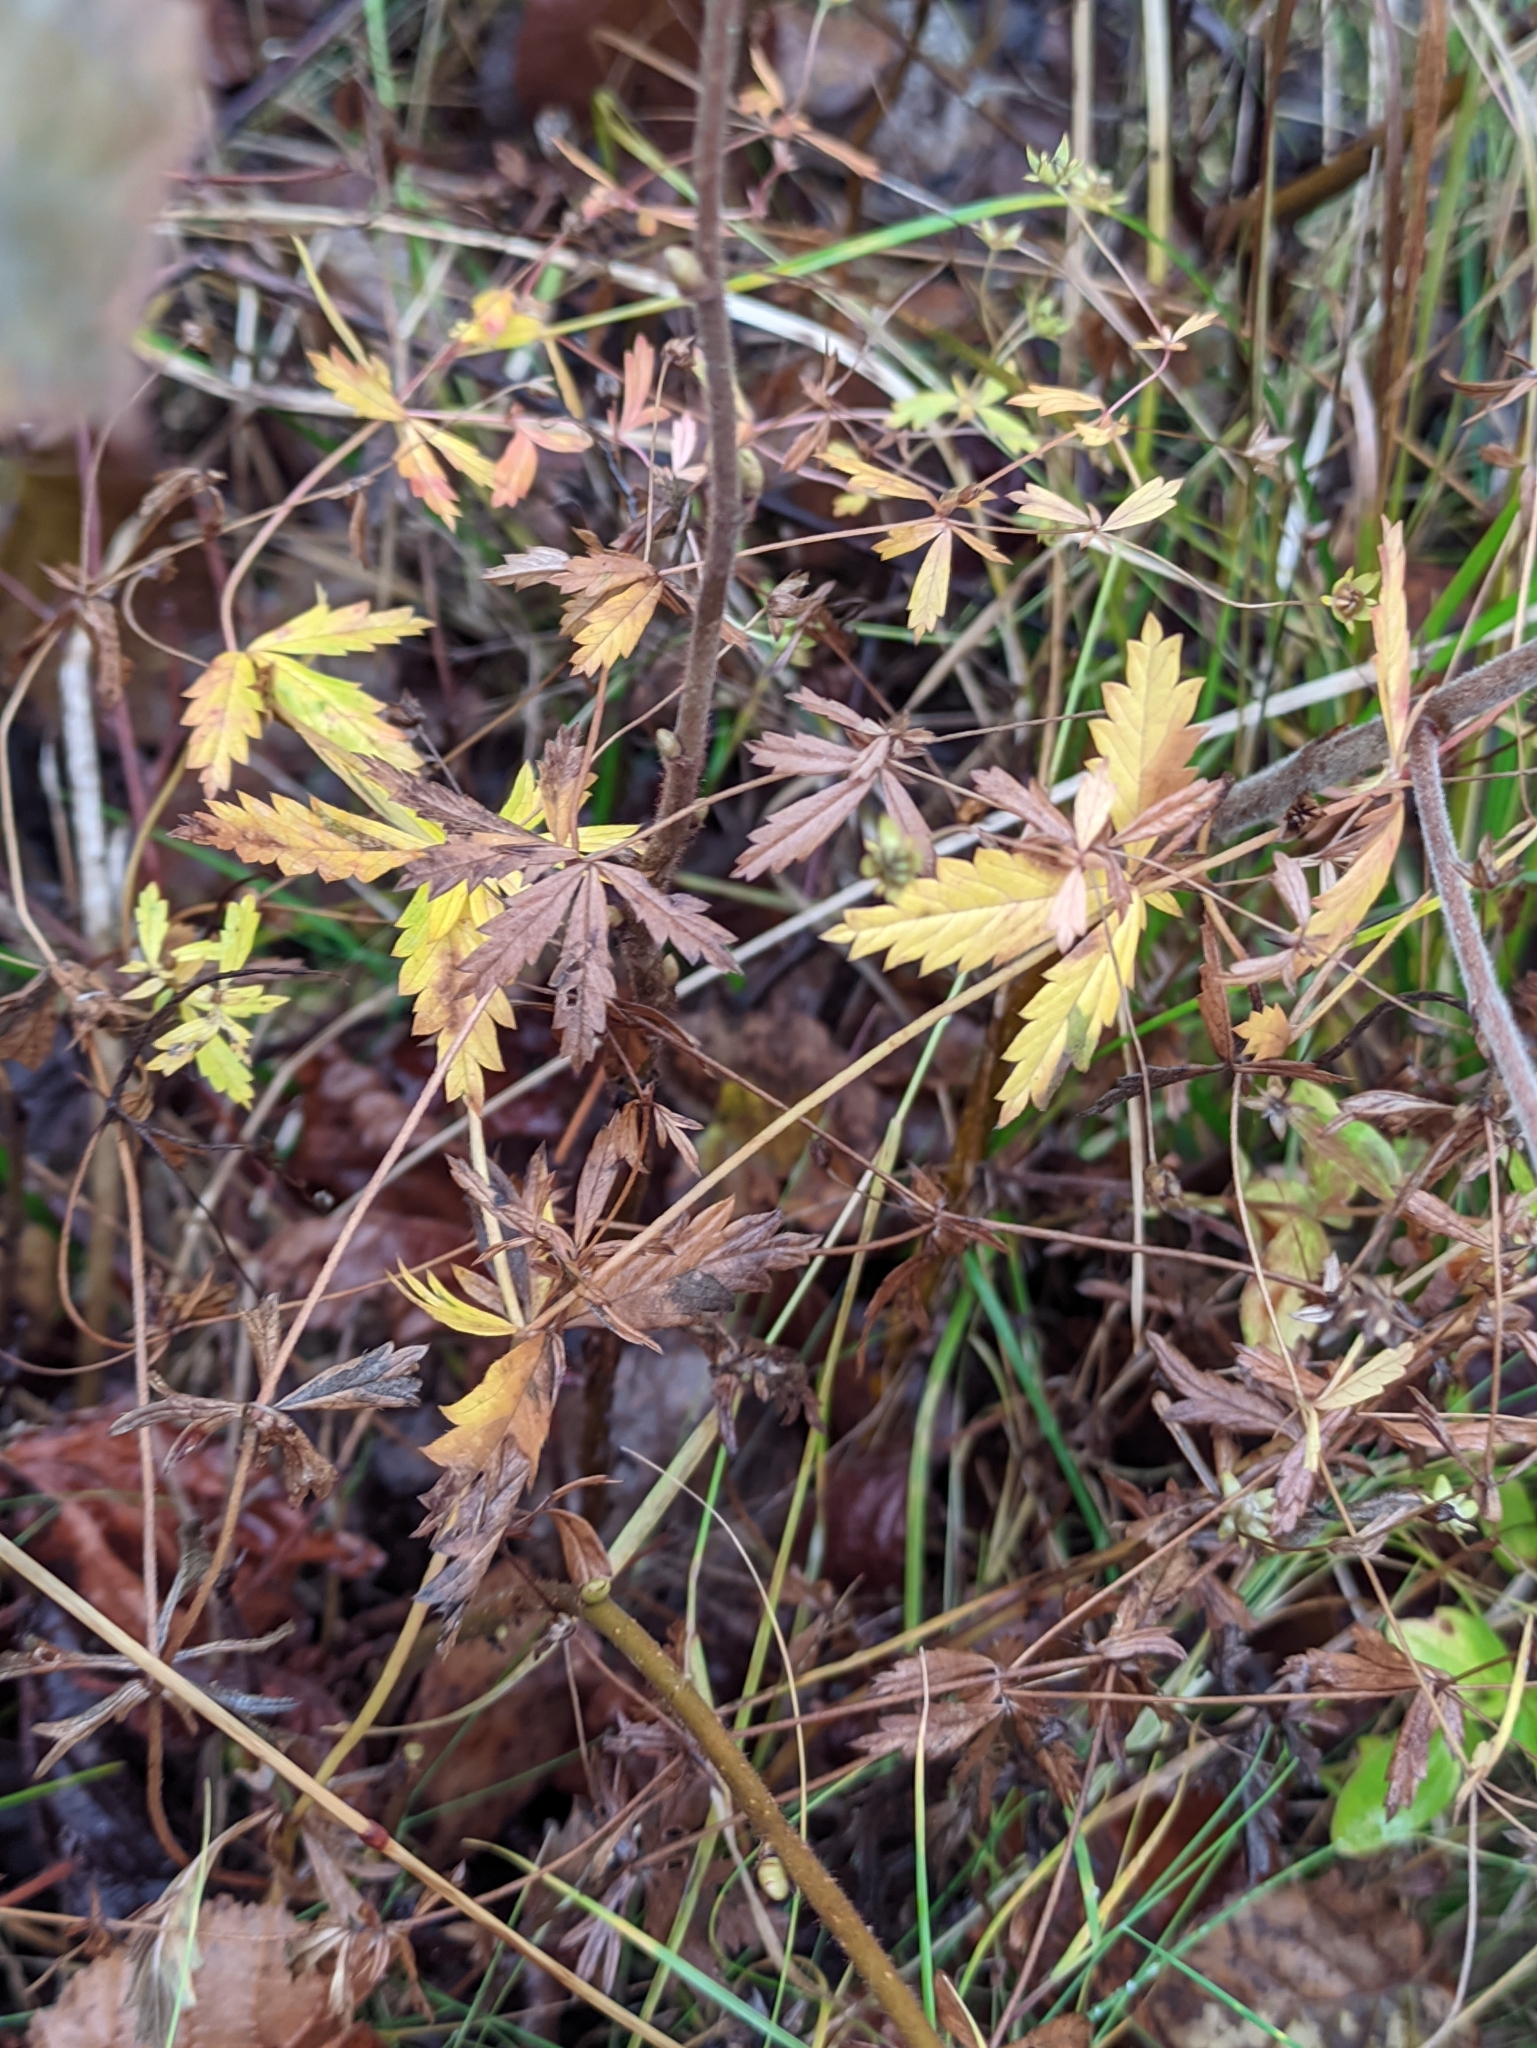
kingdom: Plantae
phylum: Tracheophyta
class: Magnoliopsida
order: Rosales
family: Rosaceae
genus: Potentilla
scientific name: Potentilla erecta
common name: Tormentil
